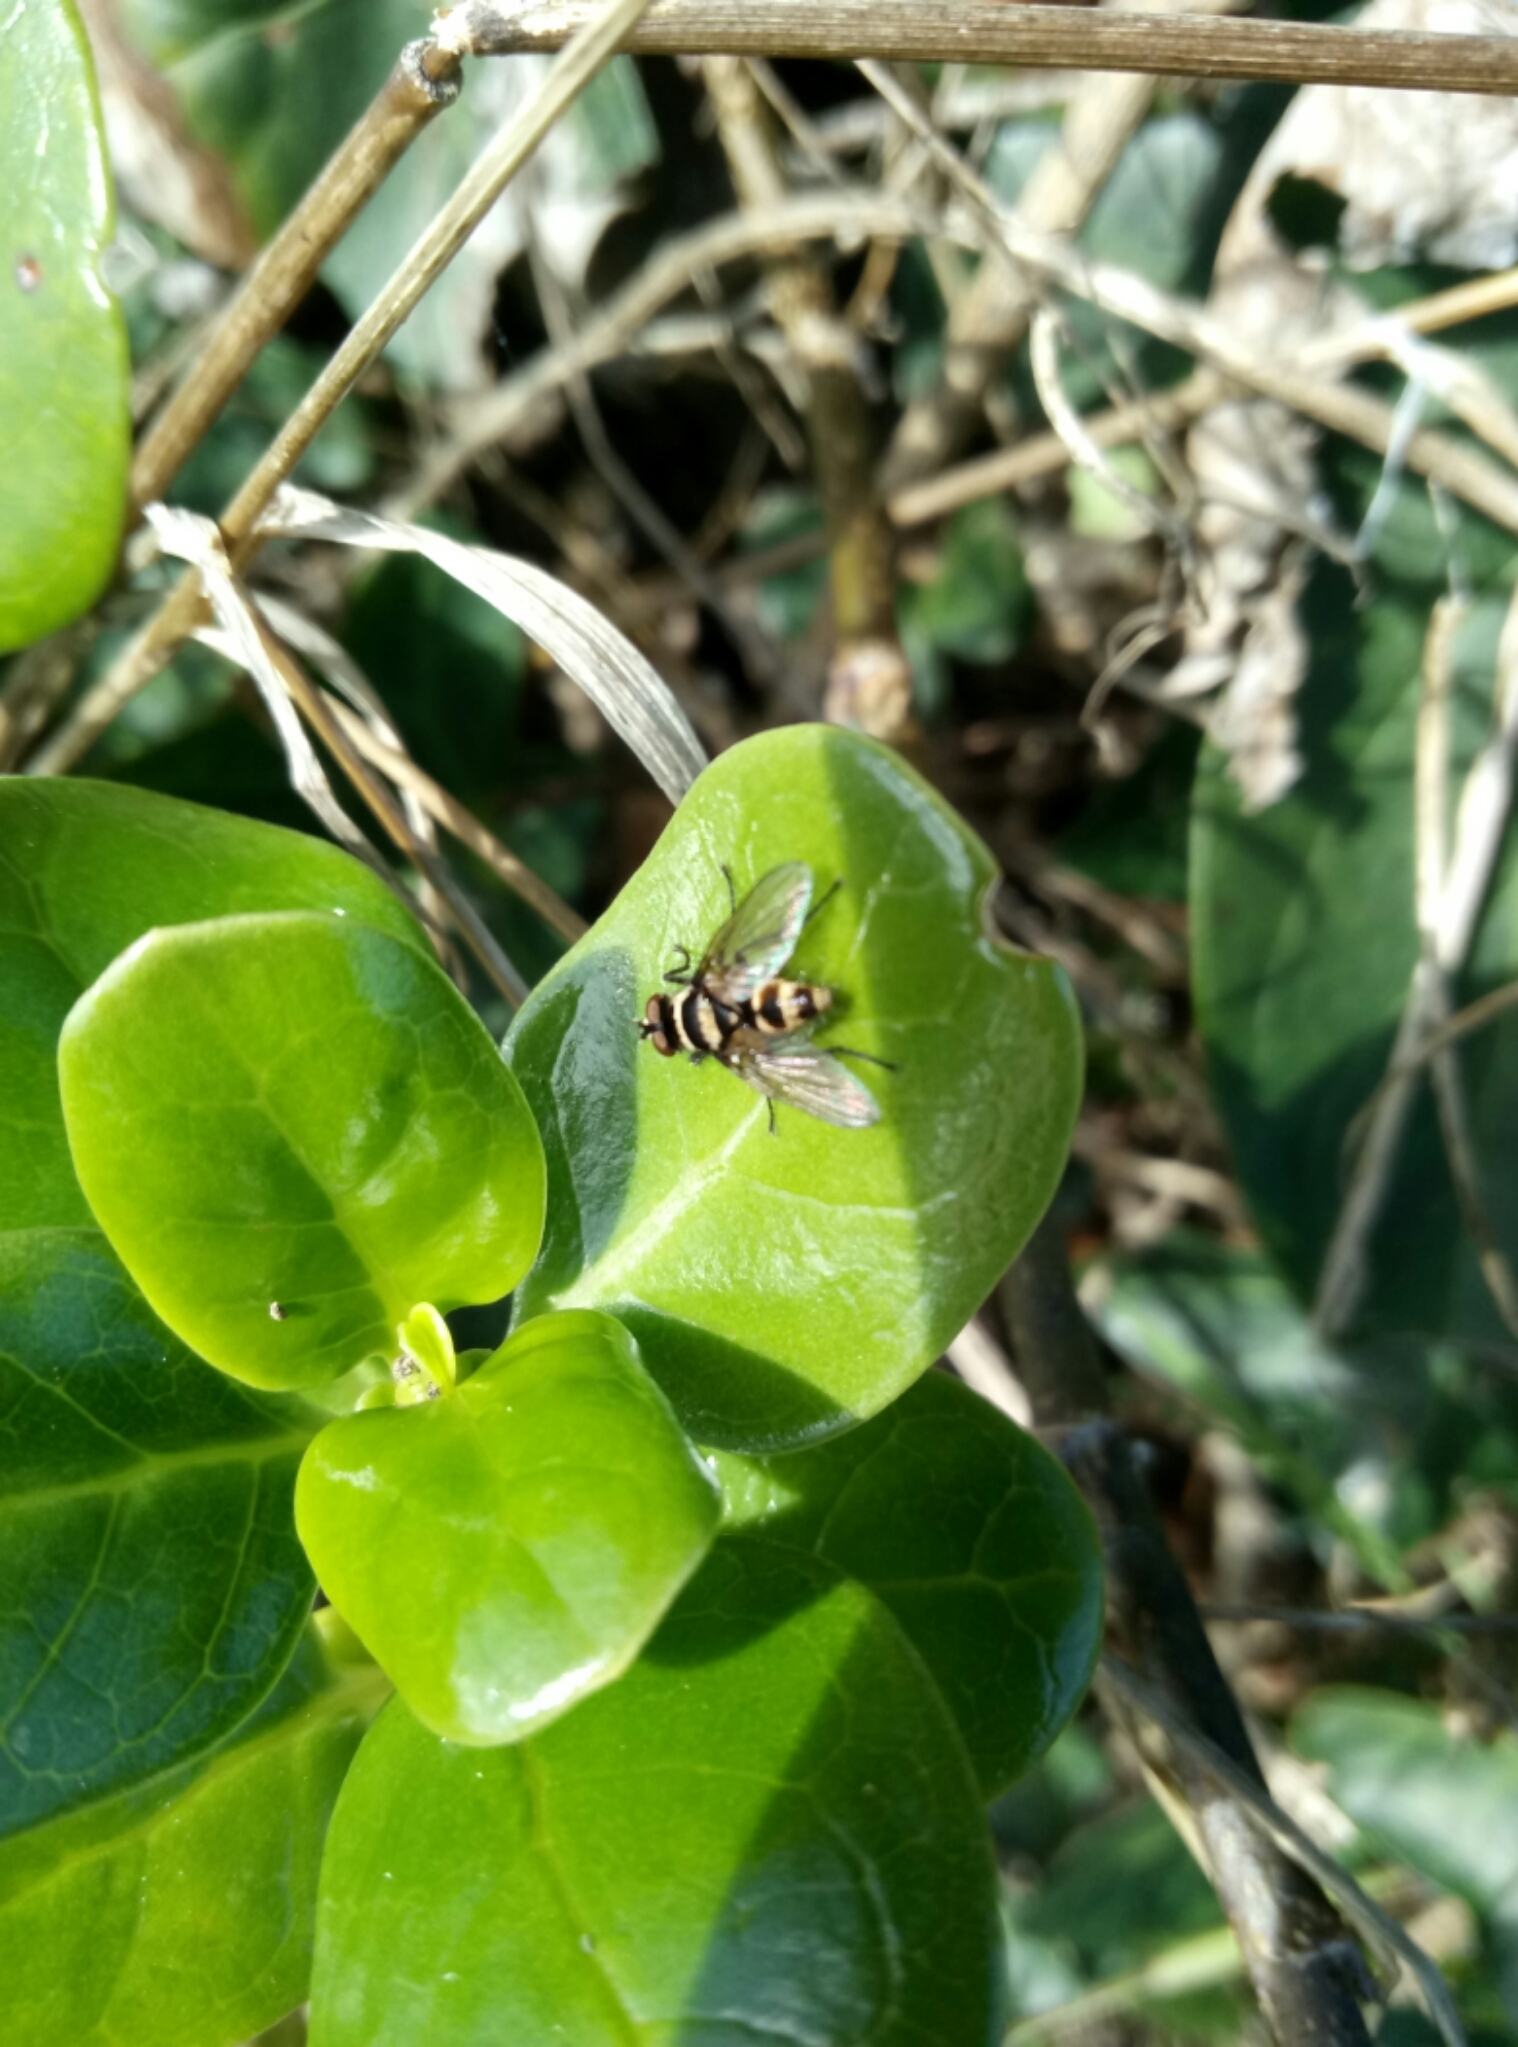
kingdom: Animalia
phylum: Arthropoda
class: Insecta
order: Diptera
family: Tachinidae
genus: Trigonospila
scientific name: Trigonospila brevifacies
